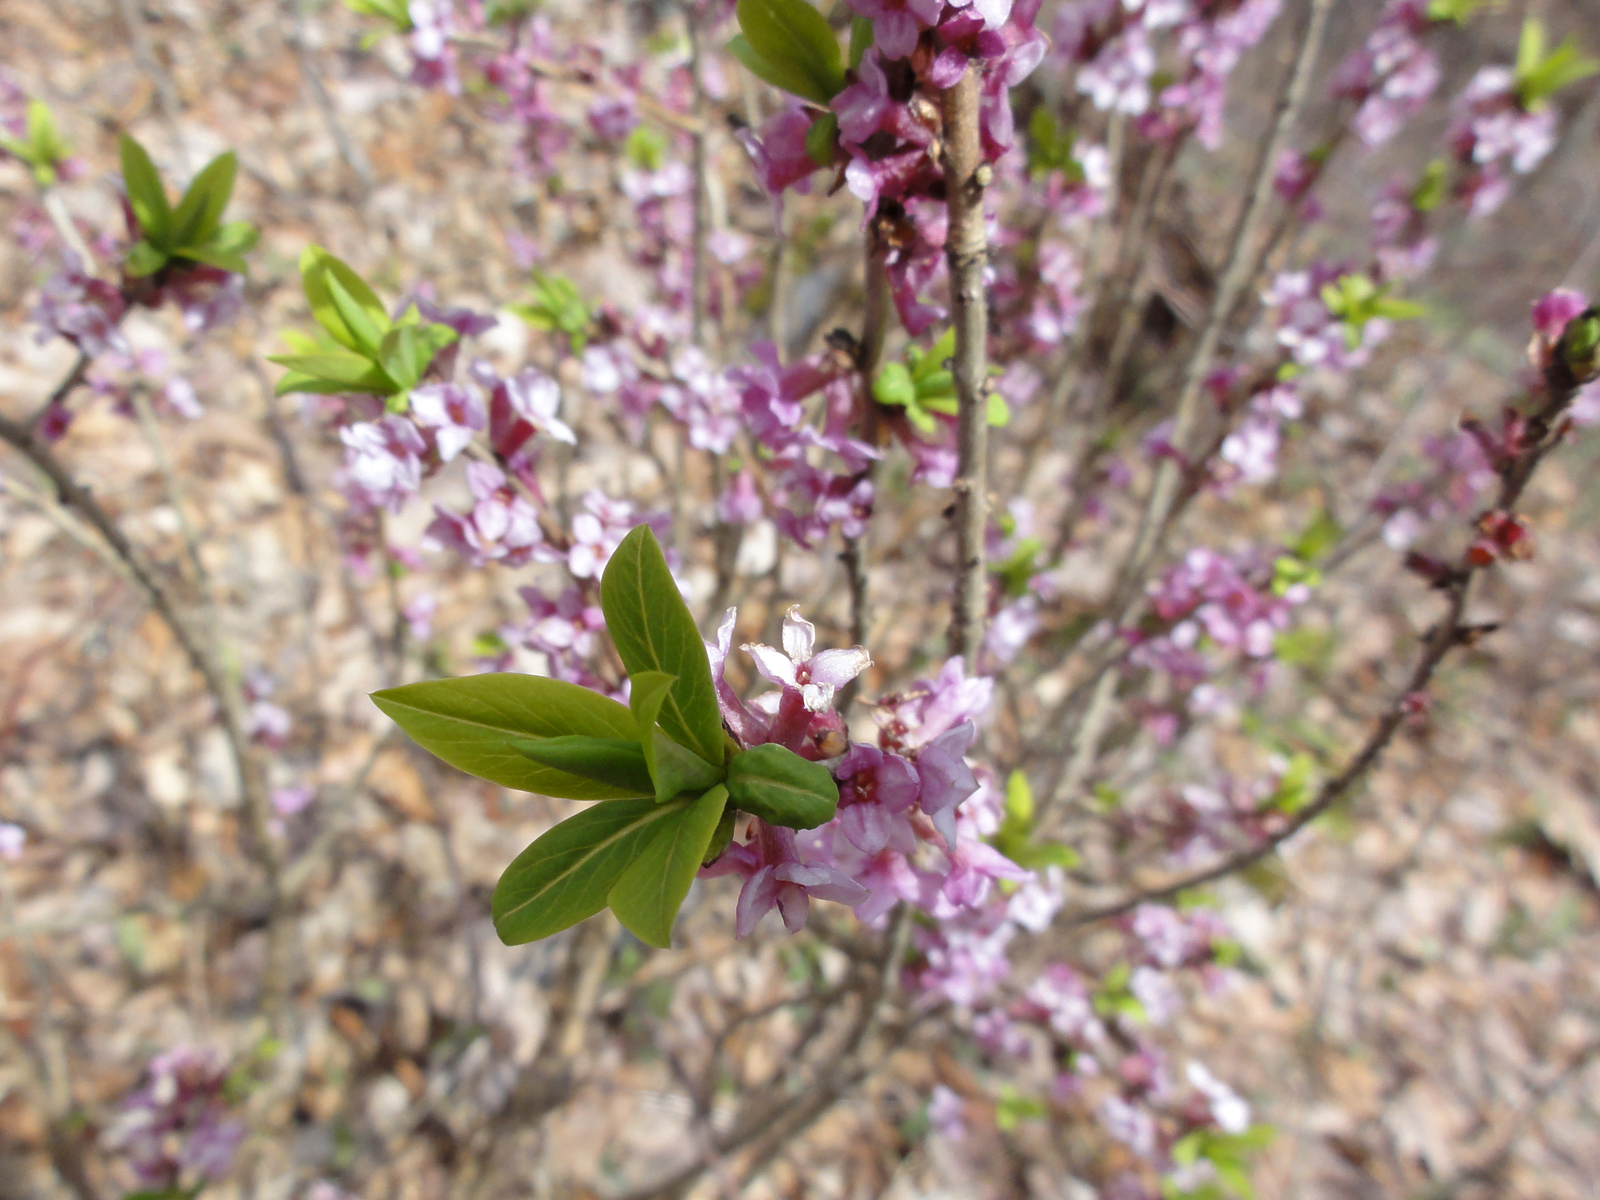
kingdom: Plantae
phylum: Tracheophyta
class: Magnoliopsida
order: Malvales
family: Thymelaeaceae
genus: Daphne
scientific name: Daphne mezereum
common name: Mezereon
